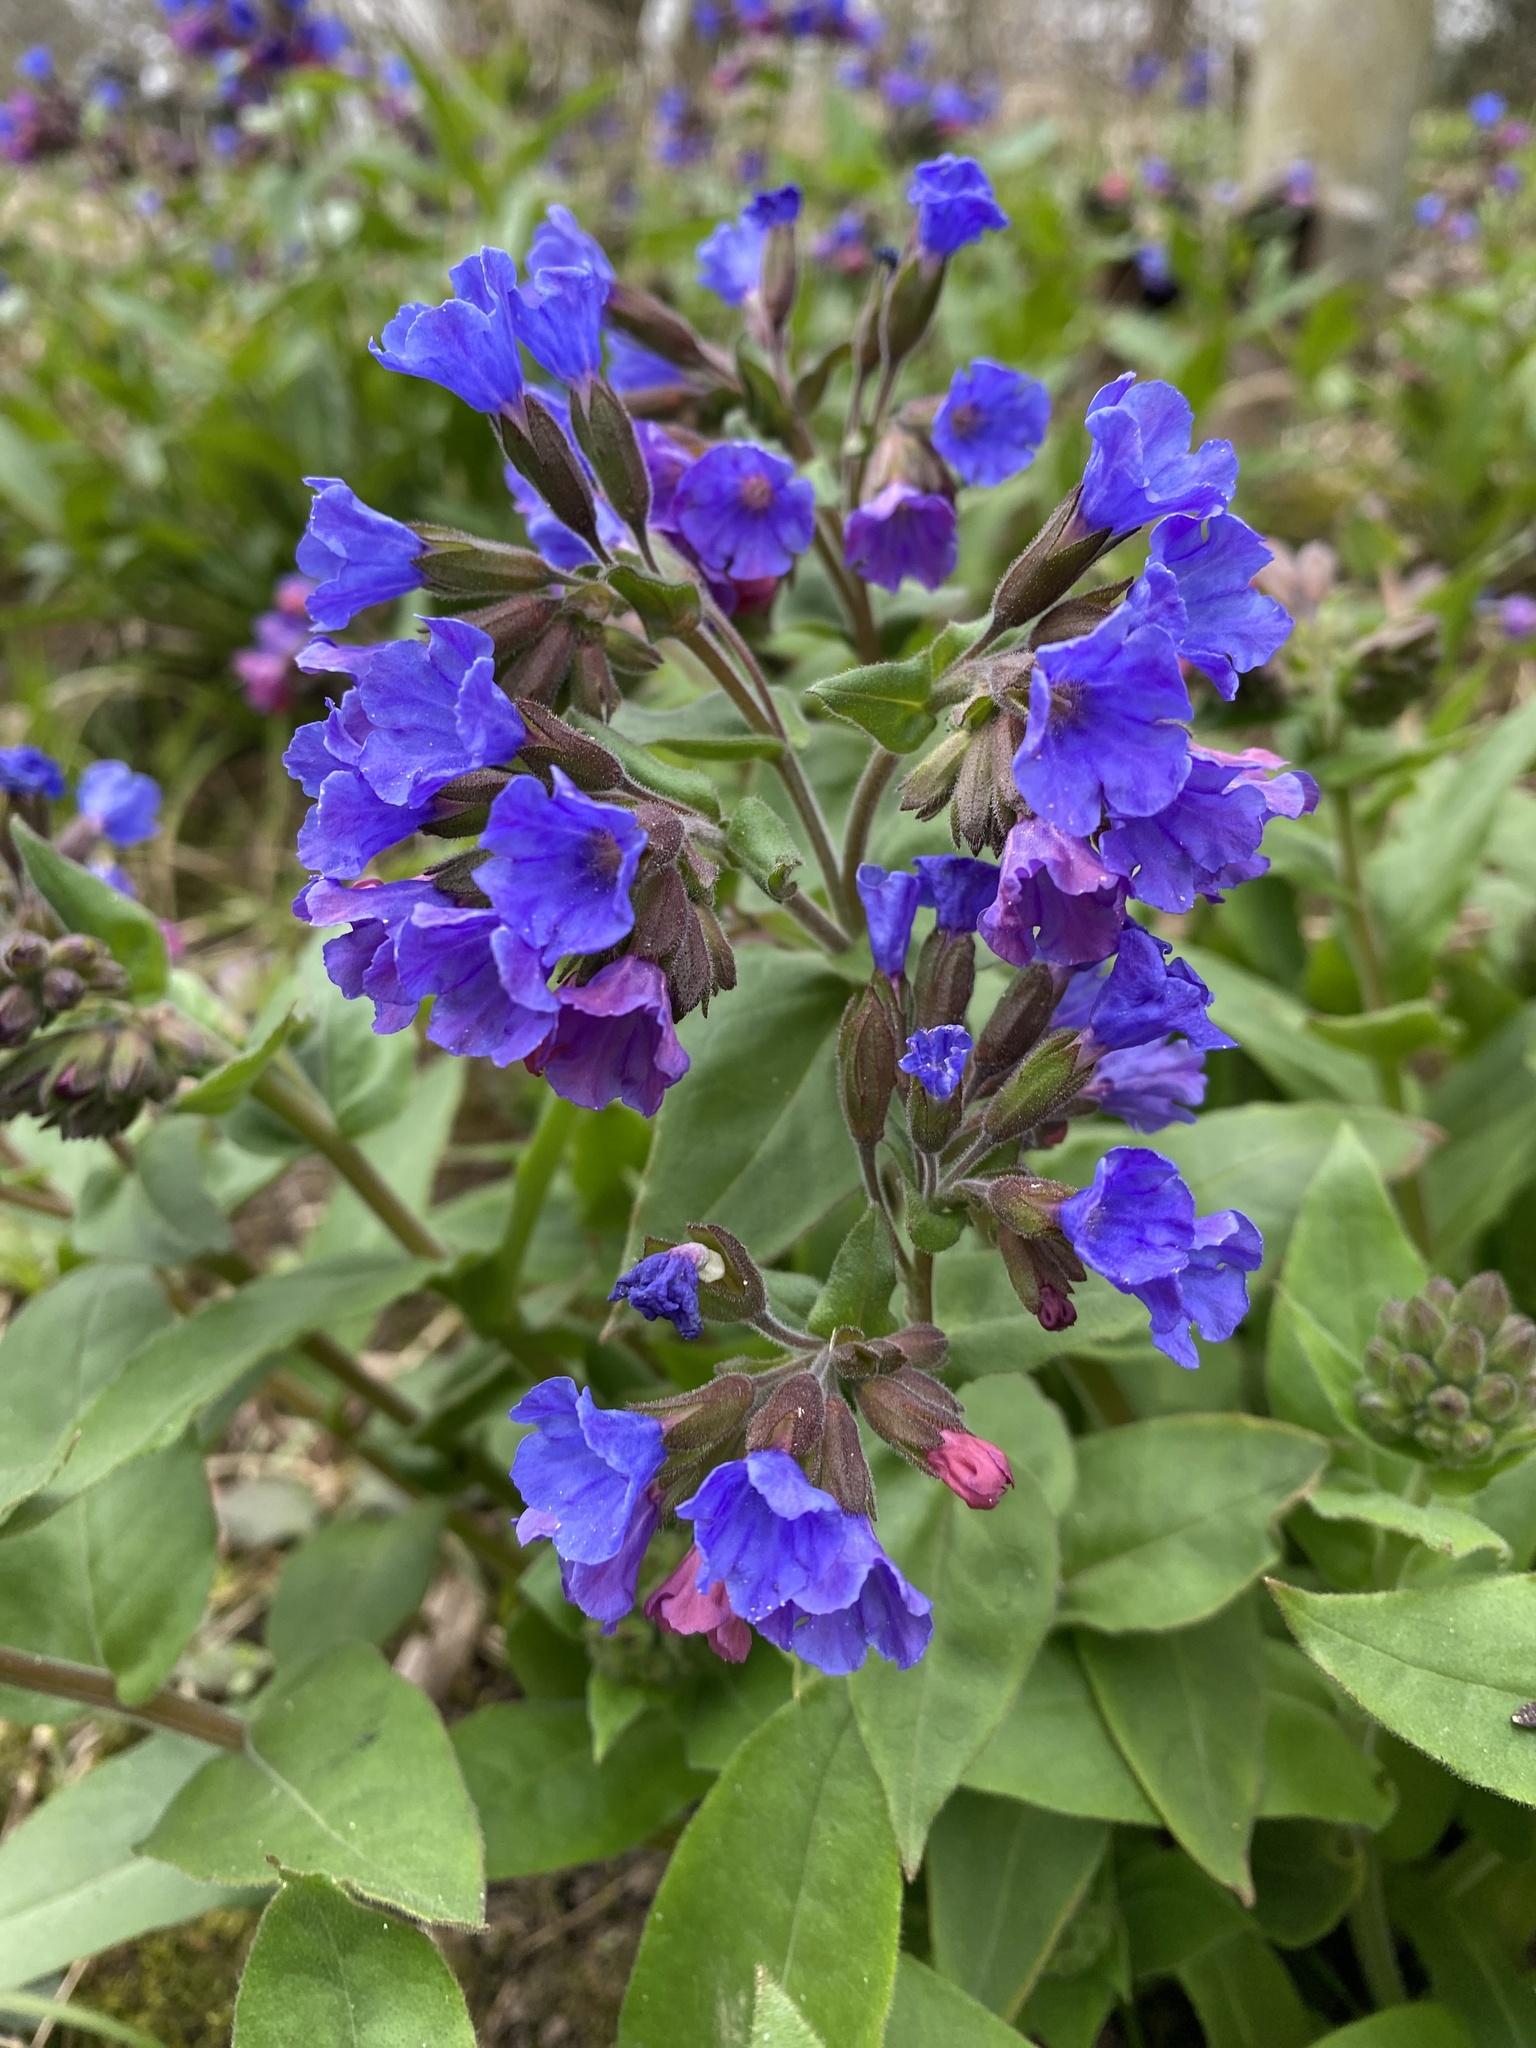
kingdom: Plantae
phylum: Tracheophyta
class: Magnoliopsida
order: Boraginales
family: Boraginaceae
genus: Pulmonaria
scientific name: Pulmonaria mollis
